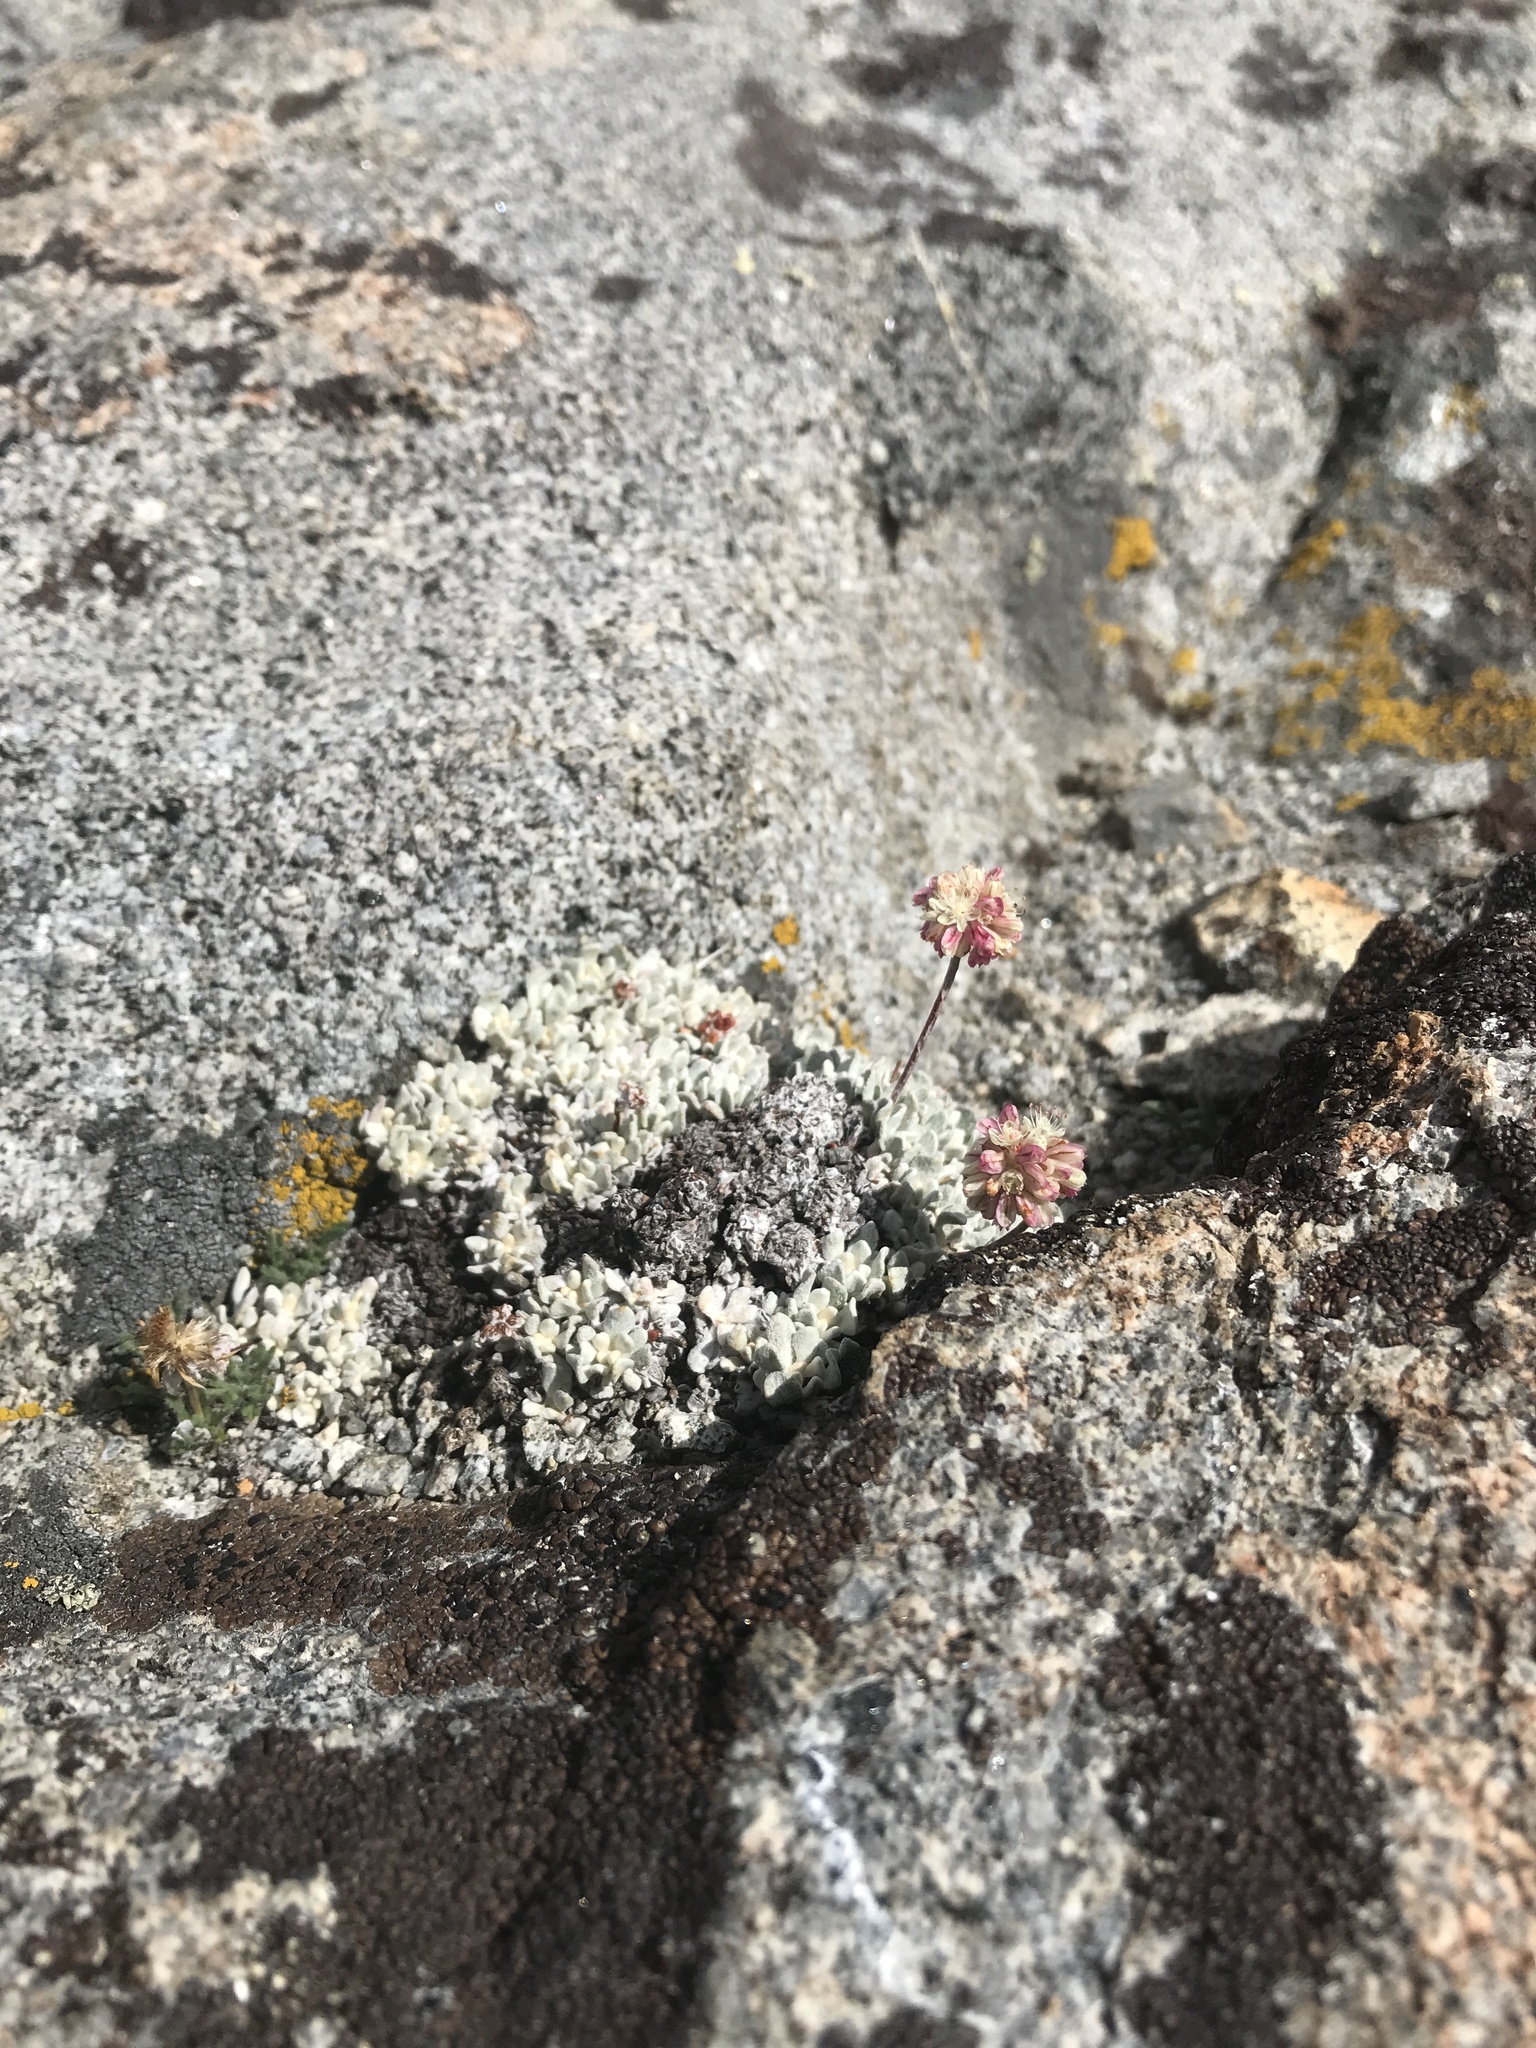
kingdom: Plantae
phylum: Tracheophyta
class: Magnoliopsida
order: Caryophyllales
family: Polygonaceae
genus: Eriogonum
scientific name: Eriogonum ovalifolium
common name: Cushion buckwheat
